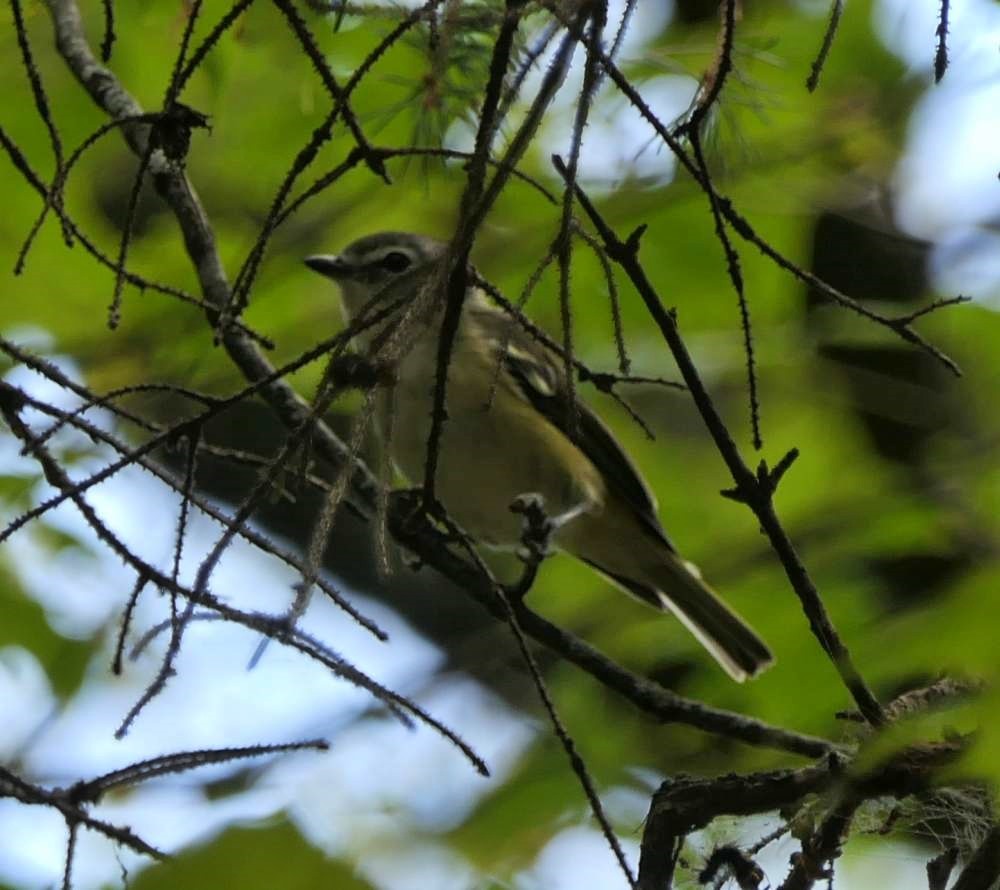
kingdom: Animalia
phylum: Chordata
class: Aves
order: Passeriformes
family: Vireonidae
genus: Vireo
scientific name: Vireo solitarius
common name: Blue-headed vireo
